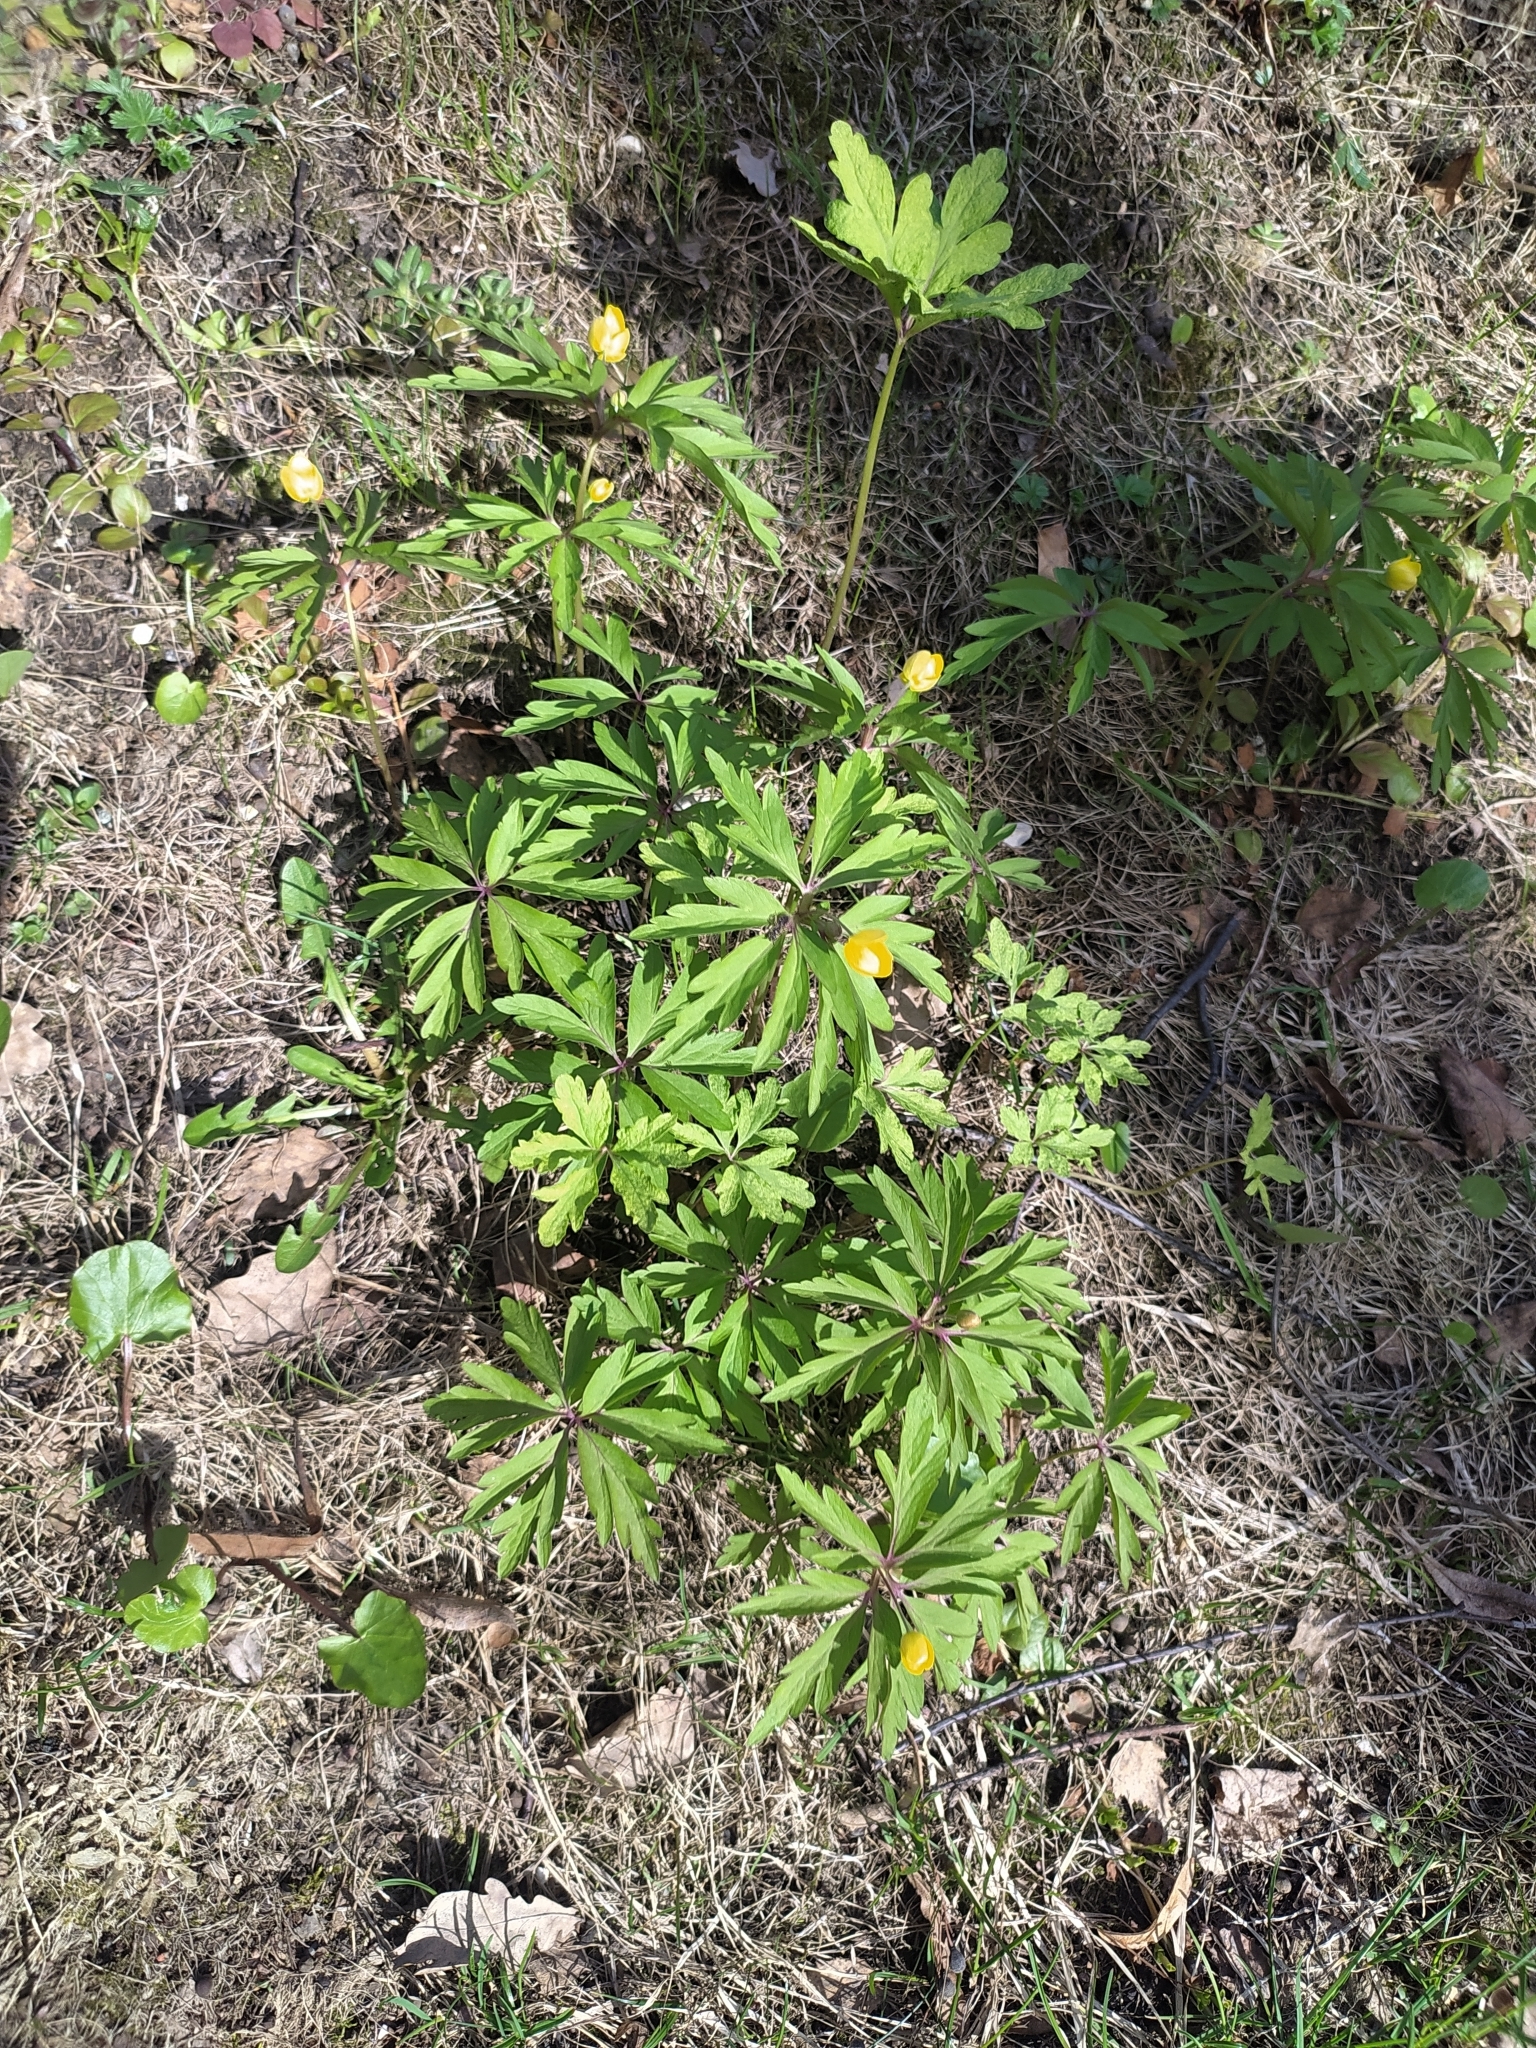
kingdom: Plantae
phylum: Tracheophyta
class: Magnoliopsida
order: Ranunculales
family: Ranunculaceae
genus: Anemone
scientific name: Anemone ranunculoides
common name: Yellow anemone
